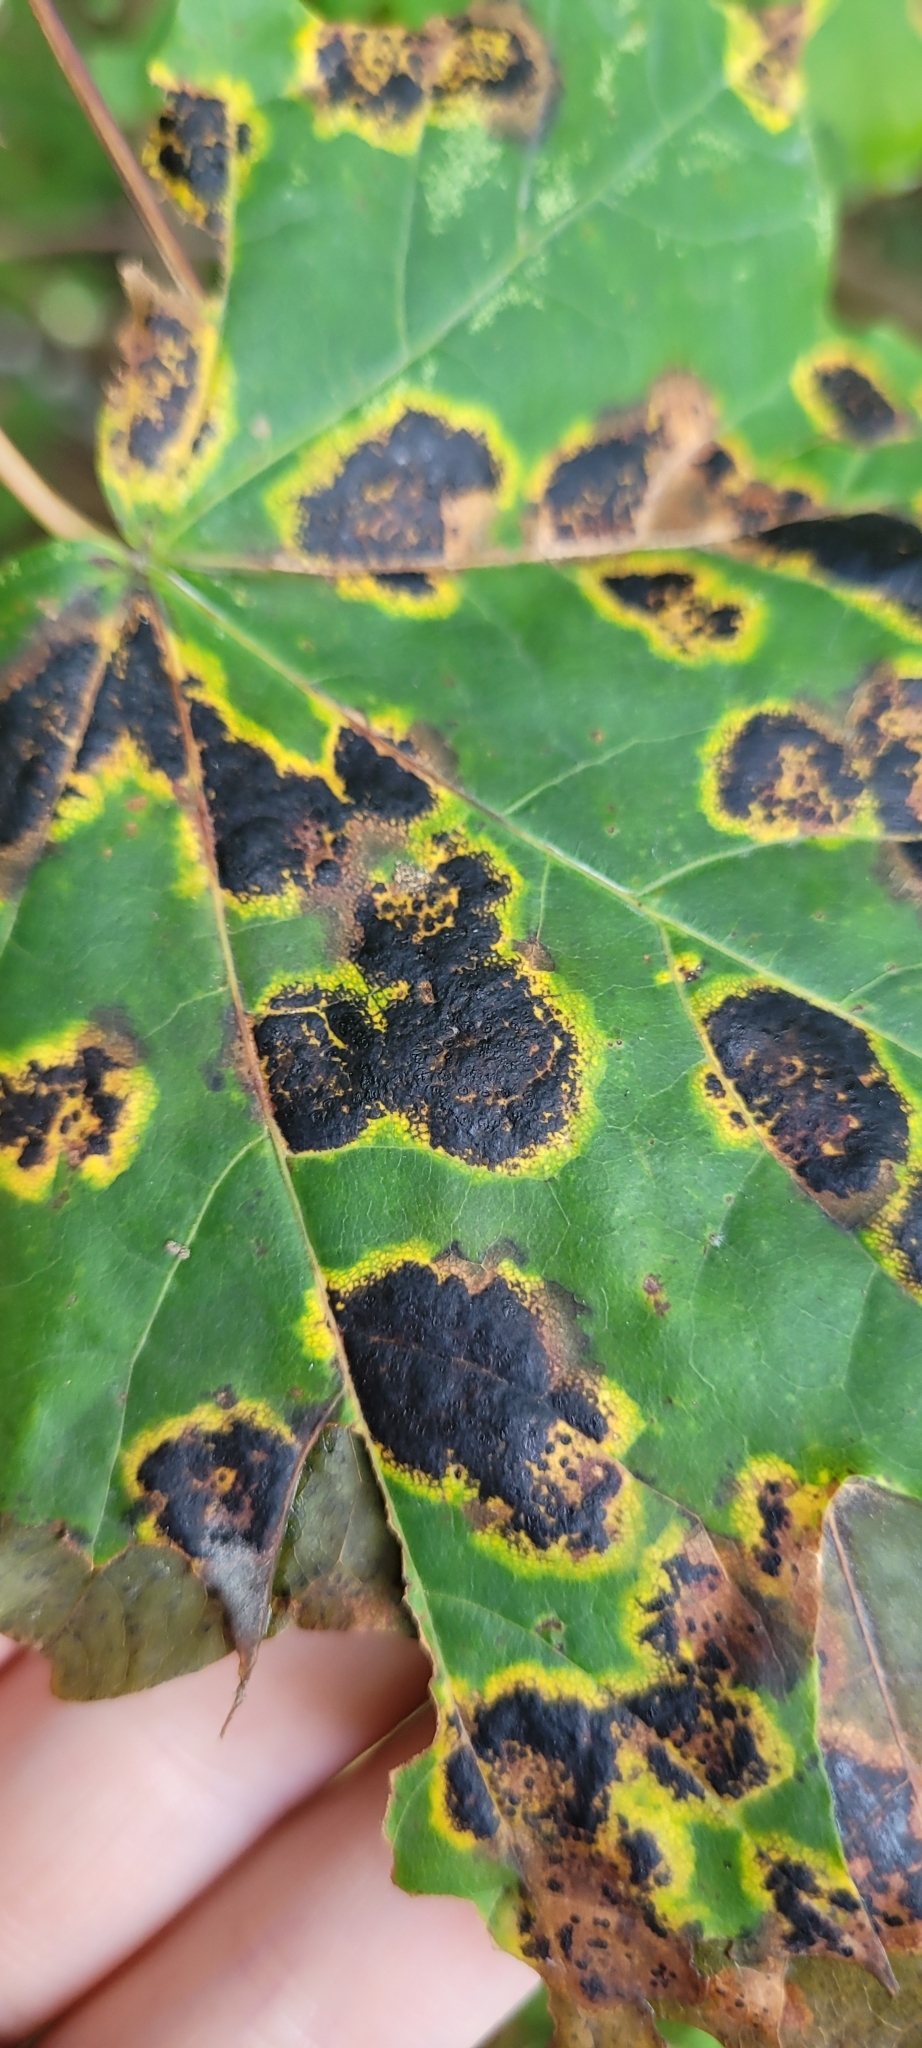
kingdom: Fungi
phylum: Ascomycota
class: Leotiomycetes
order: Rhytismatales
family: Rhytismataceae
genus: Rhytisma
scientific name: Rhytisma acerinum
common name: European tar spot
